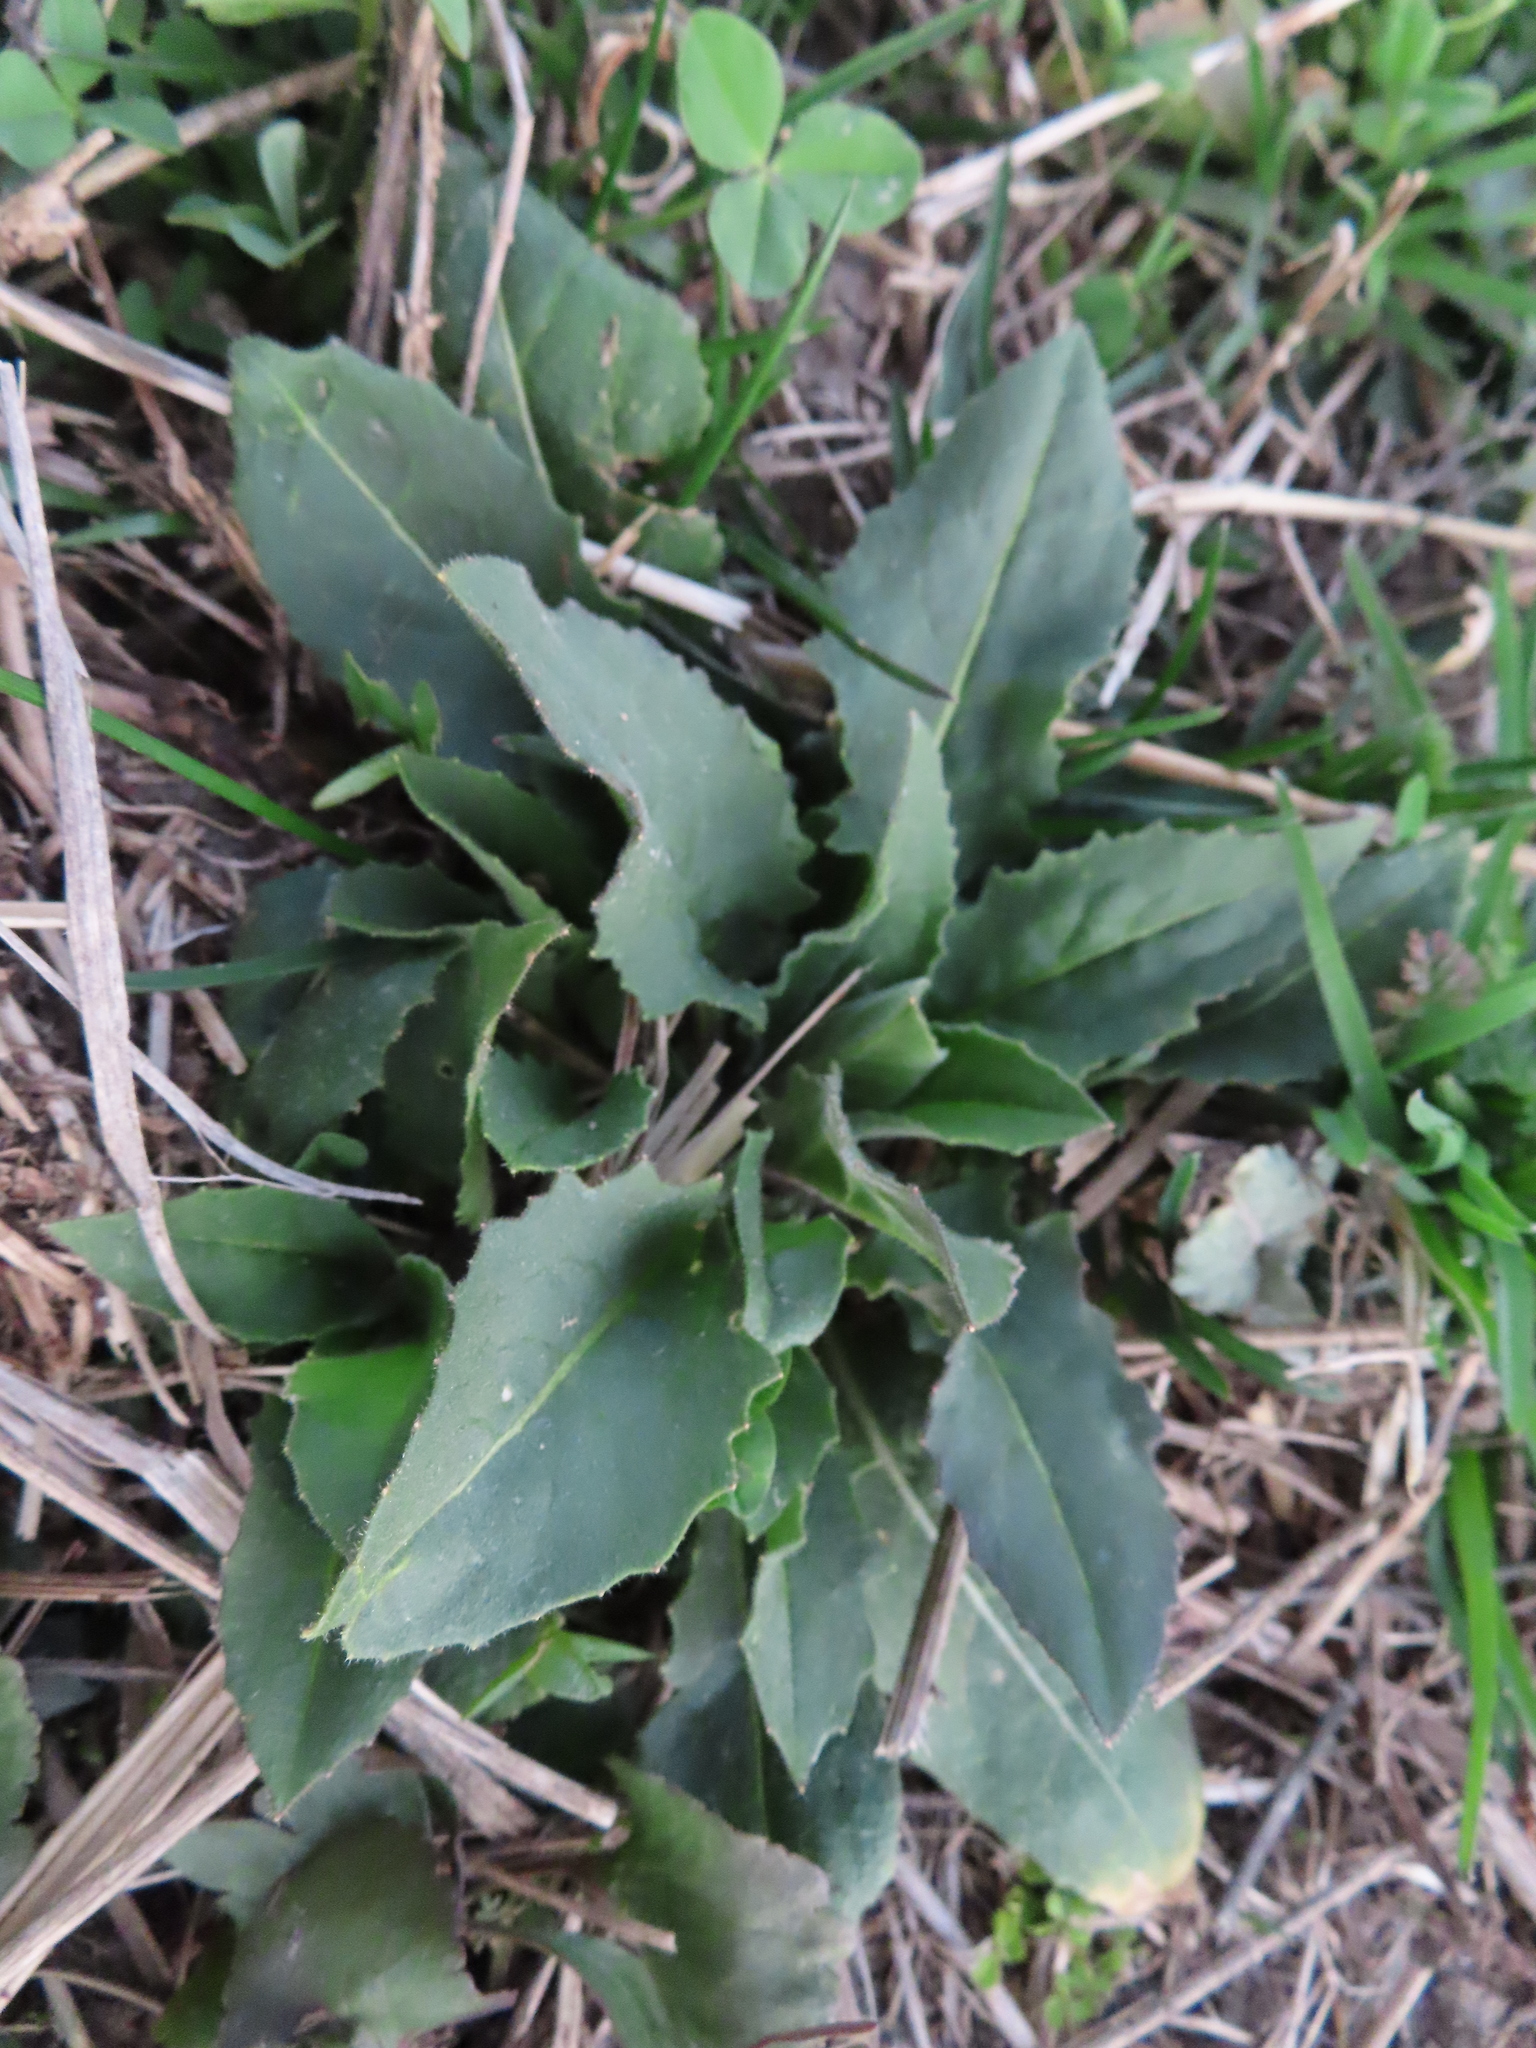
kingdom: Plantae
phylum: Tracheophyta
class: Magnoliopsida
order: Brassicales
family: Brassicaceae
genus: Hesperis
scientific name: Hesperis matronalis
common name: Dame's-violet
